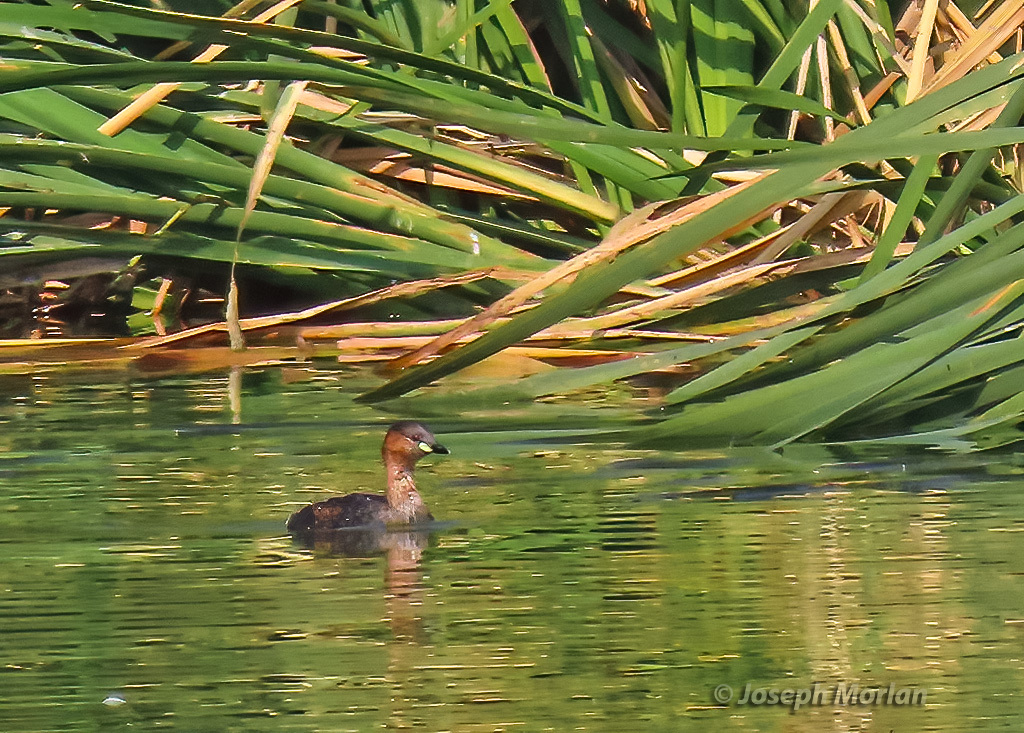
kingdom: Animalia
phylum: Chordata
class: Aves
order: Podicipediformes
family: Podicipedidae
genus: Tachybaptus
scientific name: Tachybaptus ruficollis
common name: Little grebe
